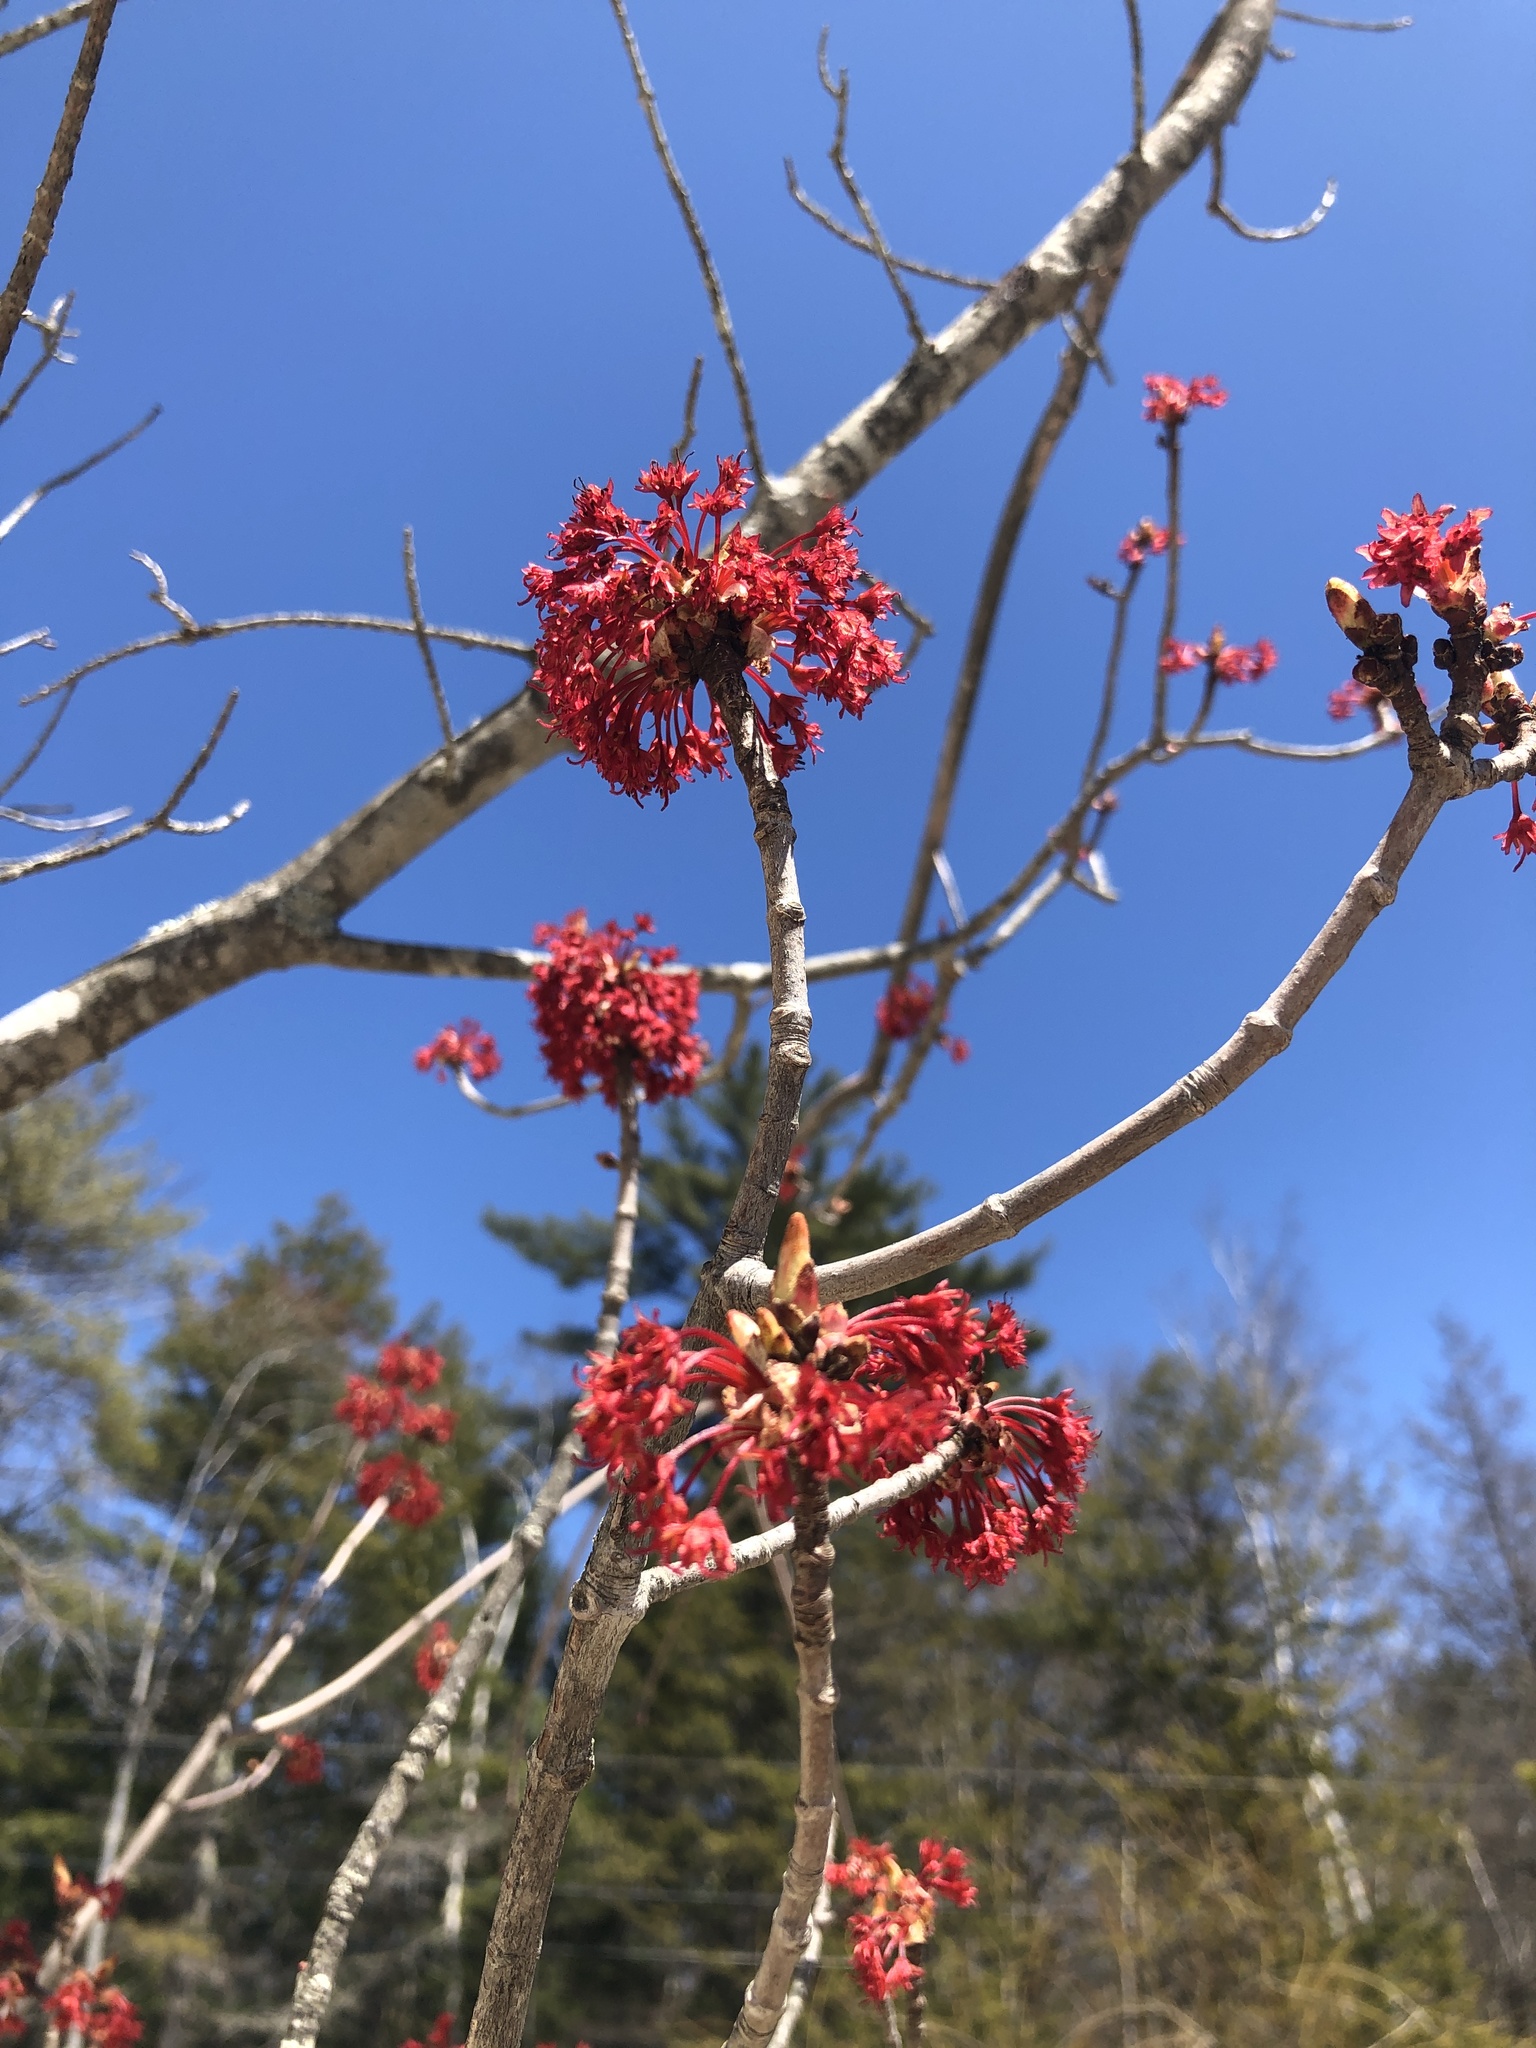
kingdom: Plantae
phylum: Tracheophyta
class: Magnoliopsida
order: Sapindales
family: Sapindaceae
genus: Acer
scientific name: Acer rubrum
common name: Red maple
